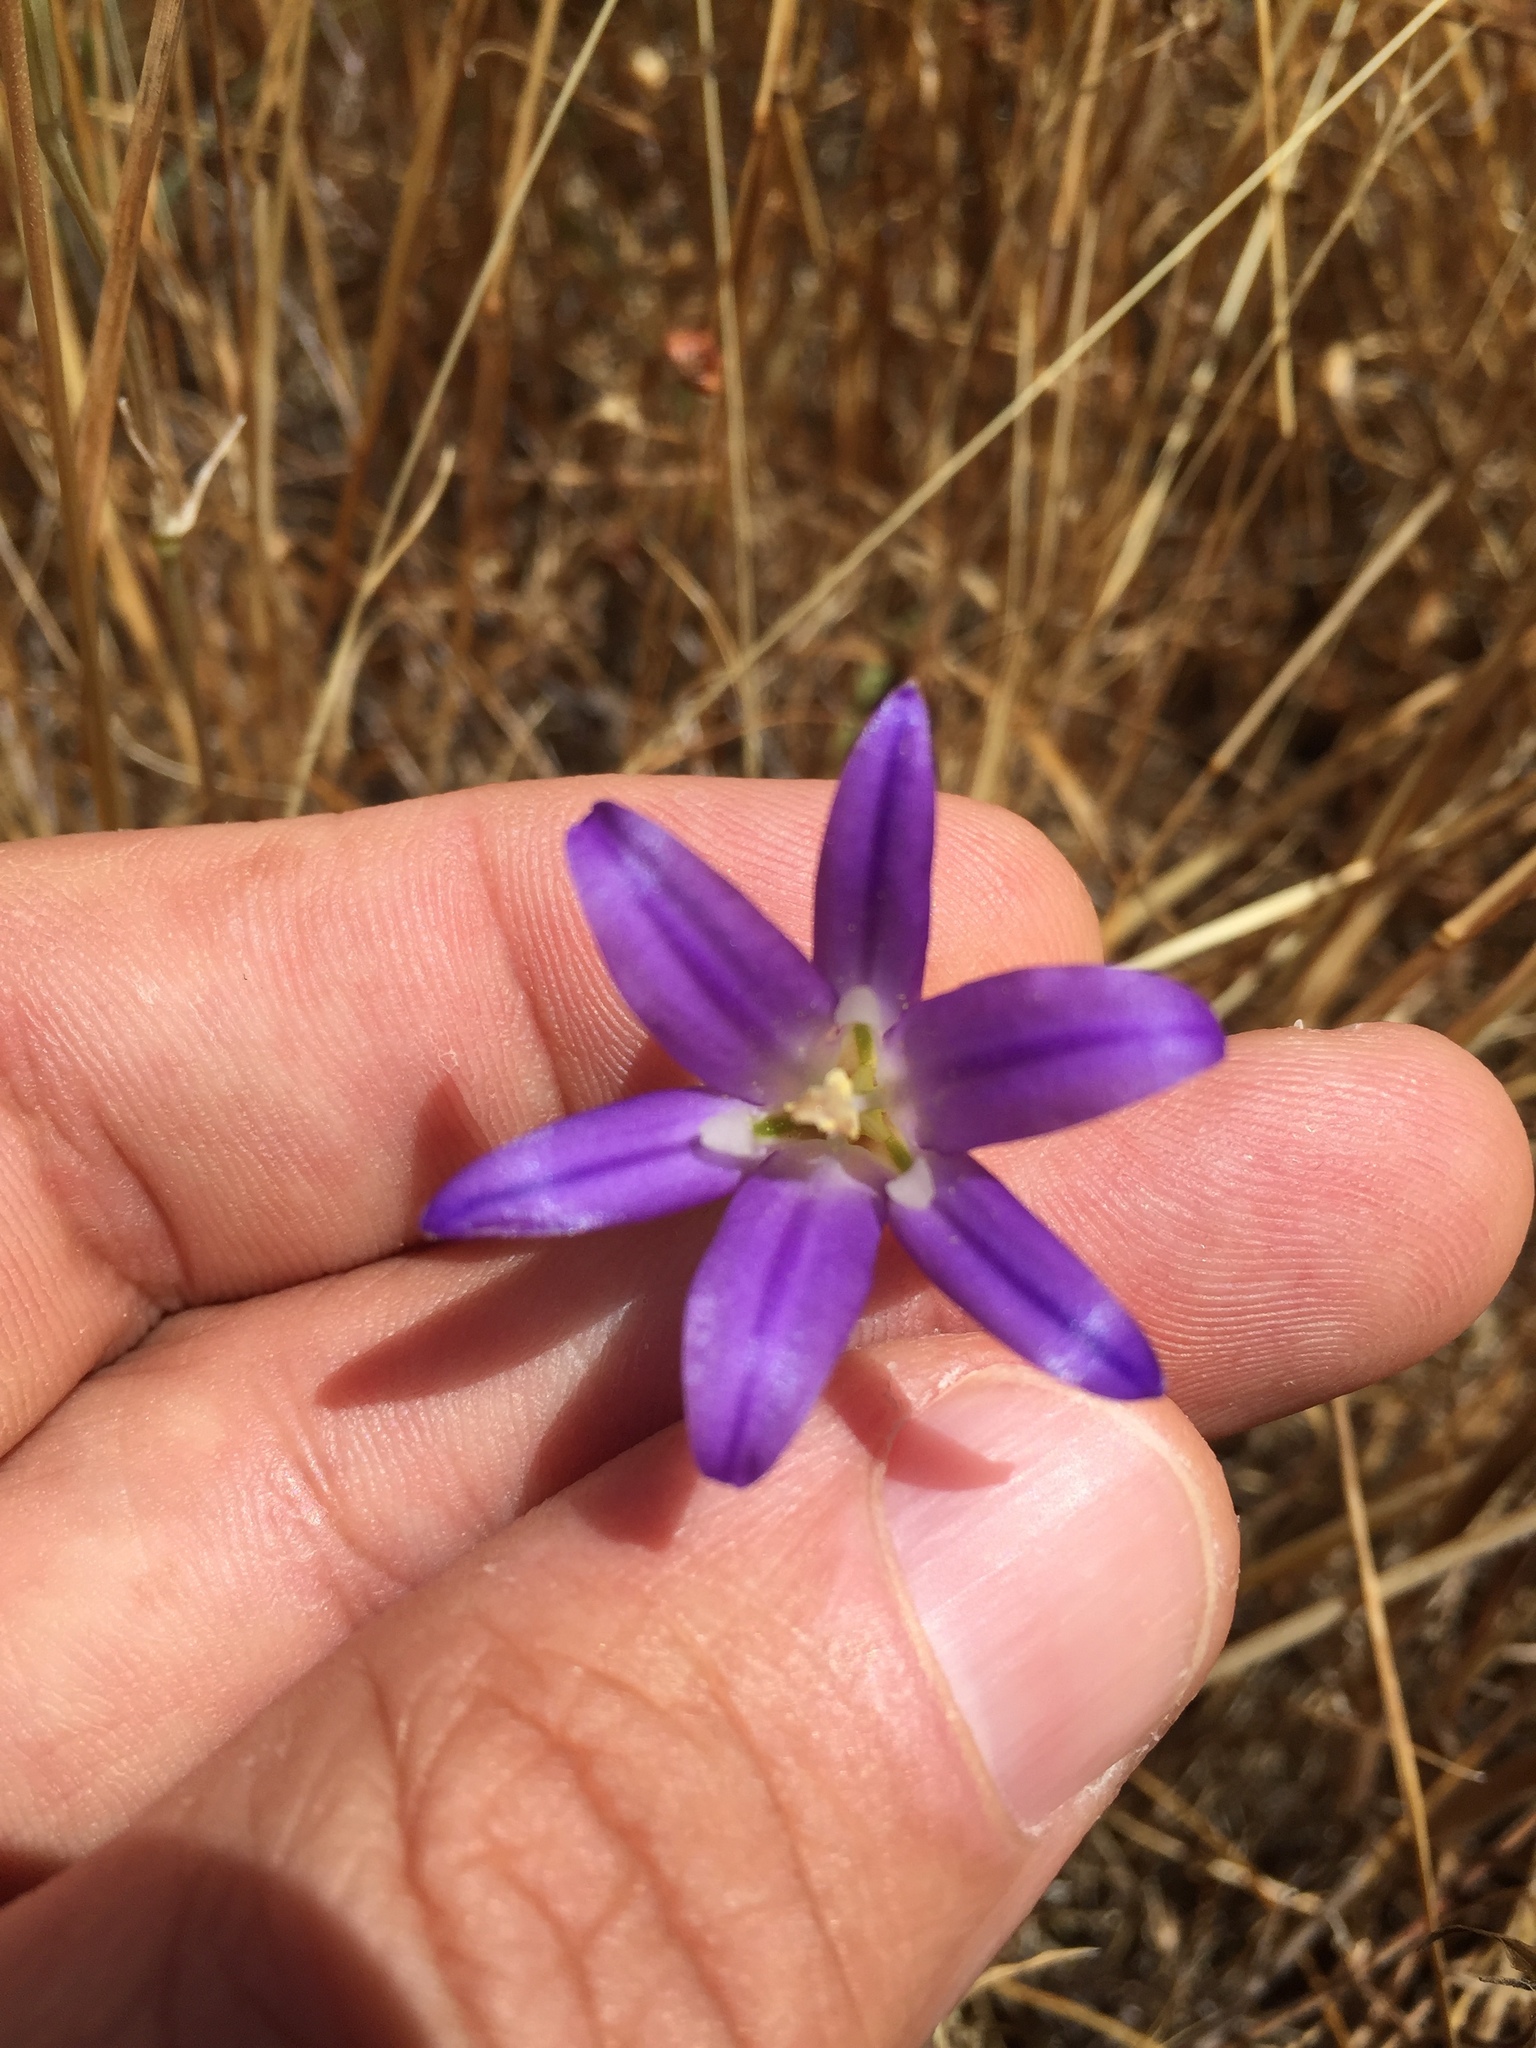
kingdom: Plantae
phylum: Tracheophyta
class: Liliopsida
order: Asparagales
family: Asparagaceae
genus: Brodiaea
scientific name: Brodiaea elegans
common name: Elegant cluster-lily
